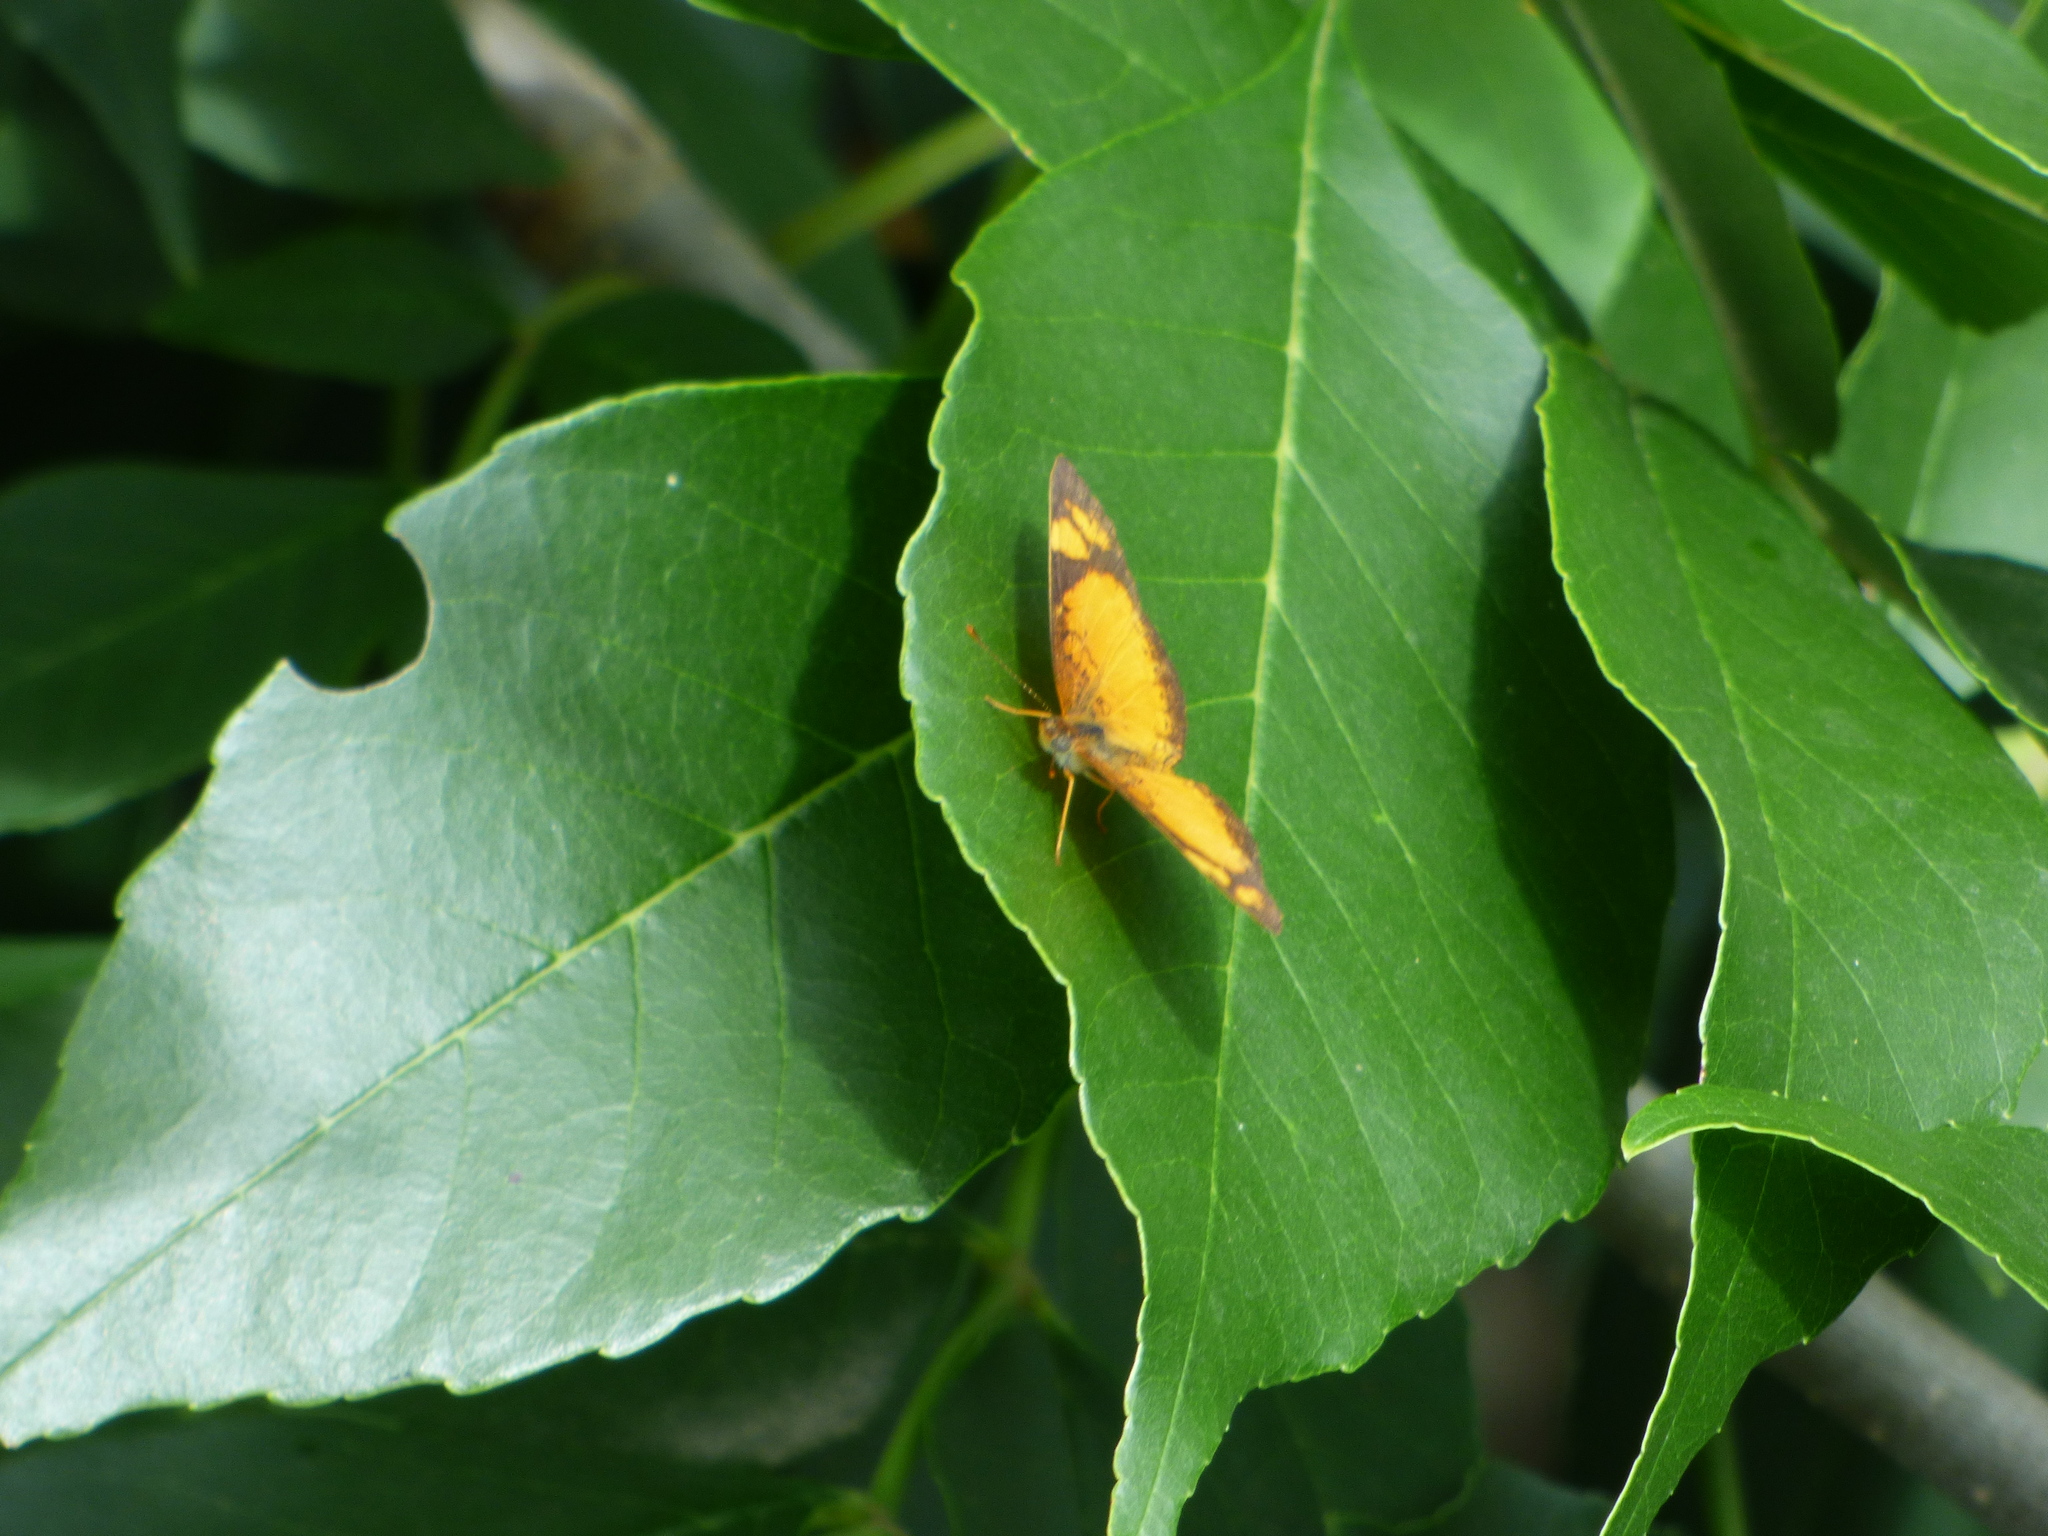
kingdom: Animalia
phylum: Arthropoda
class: Insecta
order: Lepidoptera
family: Nymphalidae
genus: Tegosa
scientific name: Tegosa claudina
